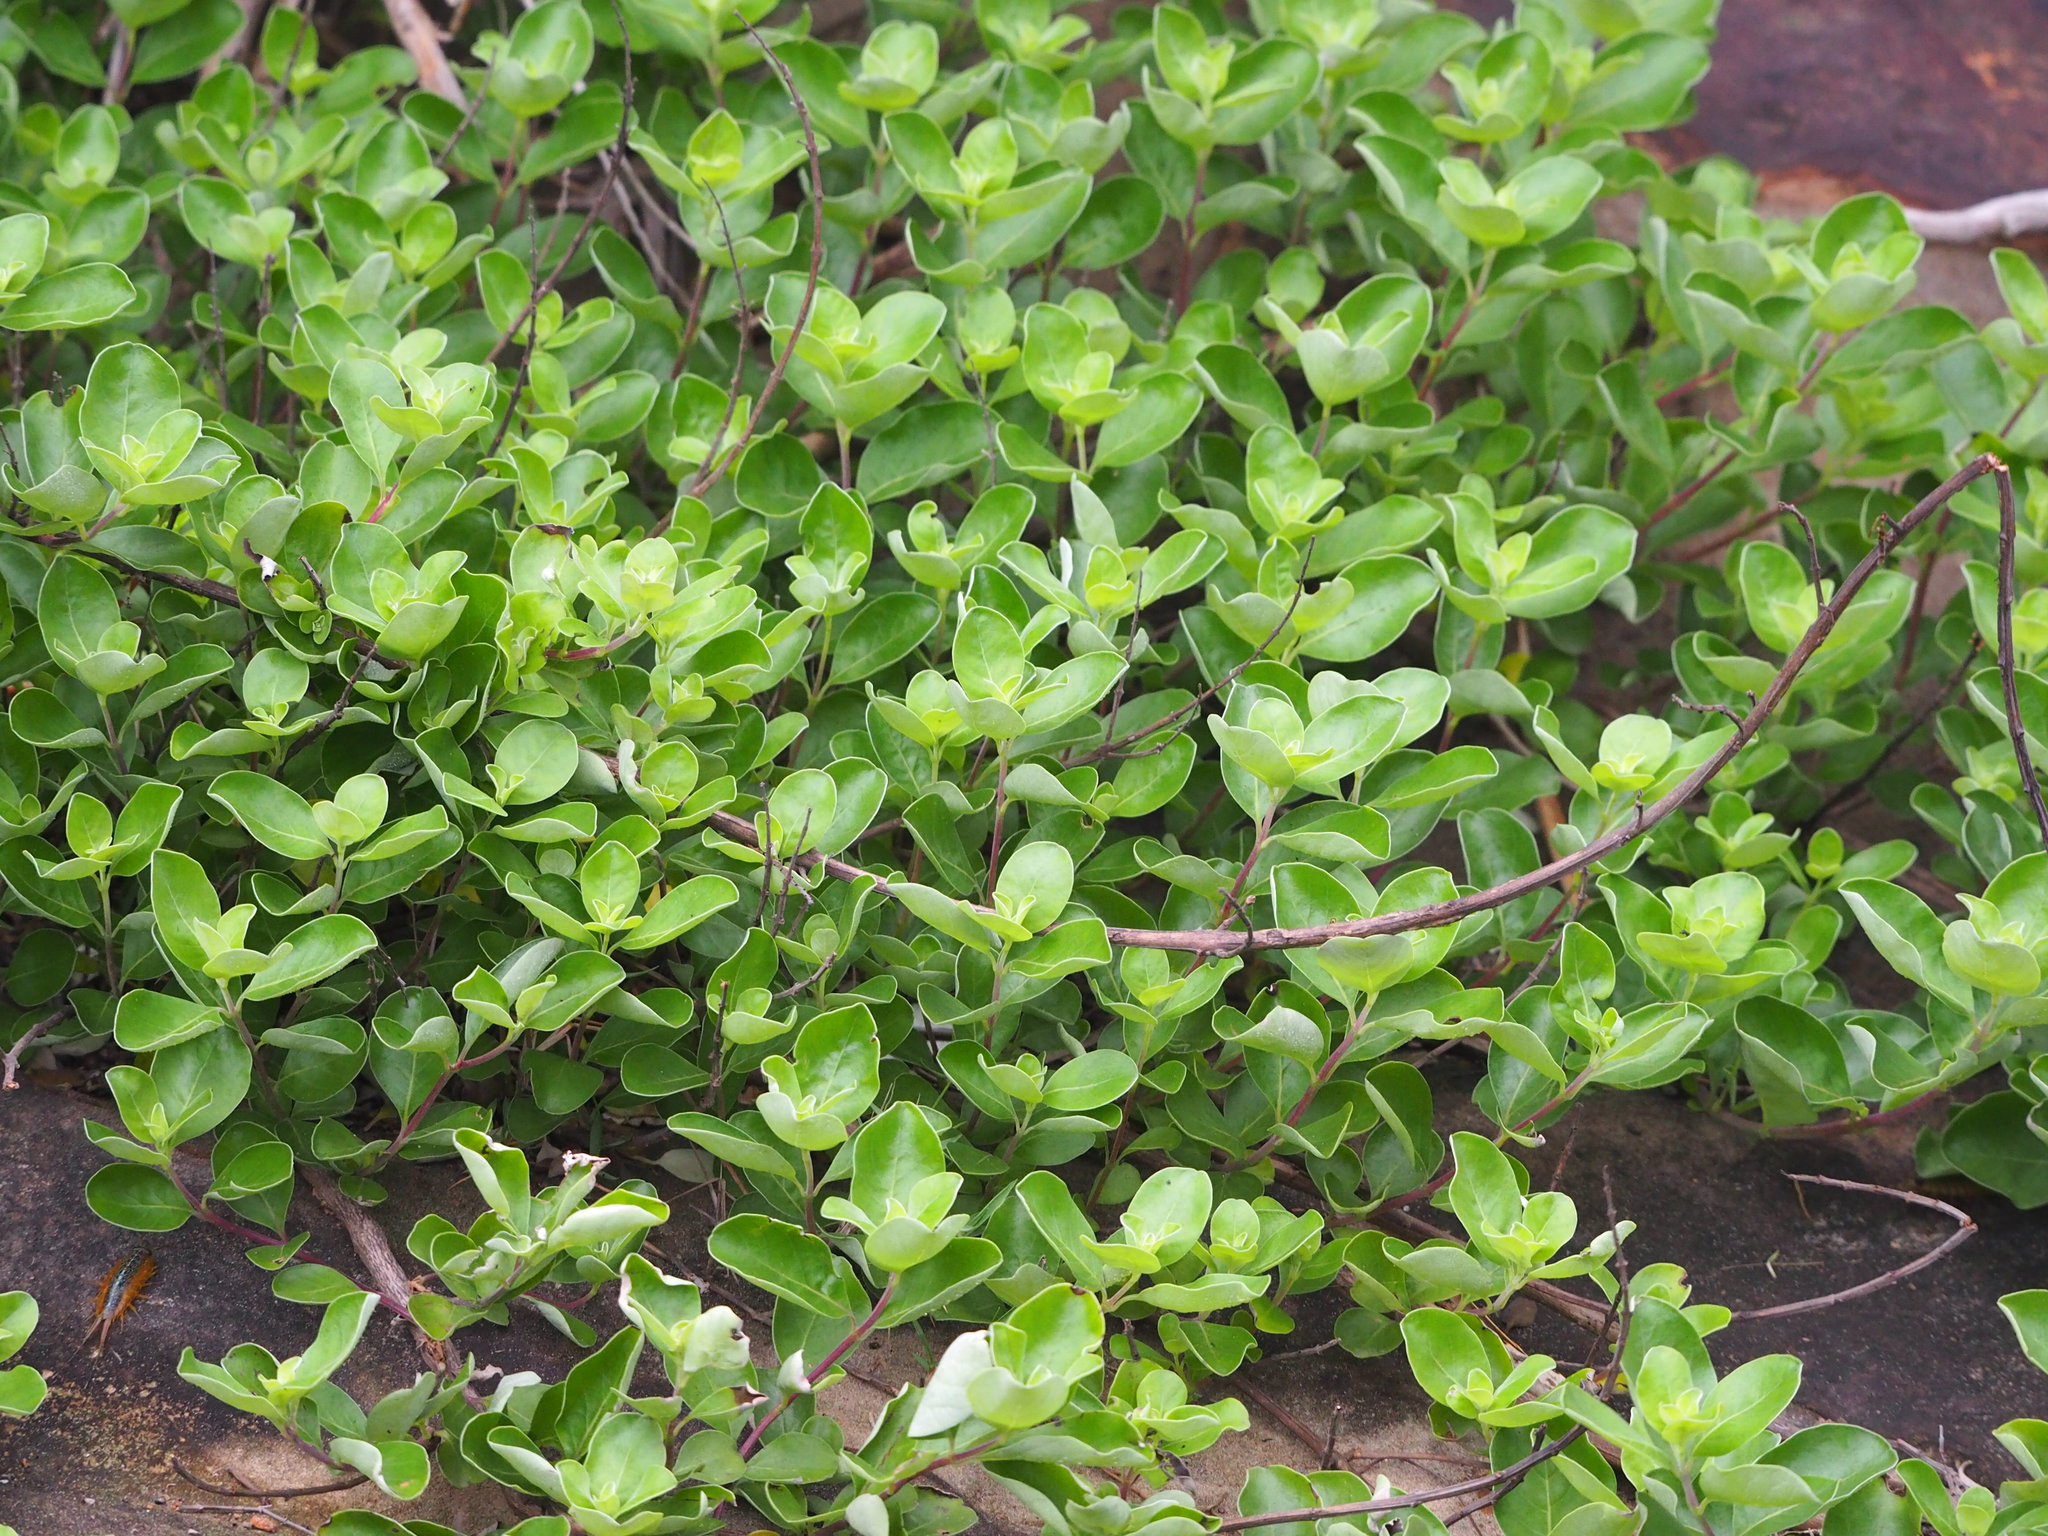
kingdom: Plantae
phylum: Tracheophyta
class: Magnoliopsida
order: Lamiales
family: Lamiaceae
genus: Vitex
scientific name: Vitex rotundifolia
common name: Beach vitex
